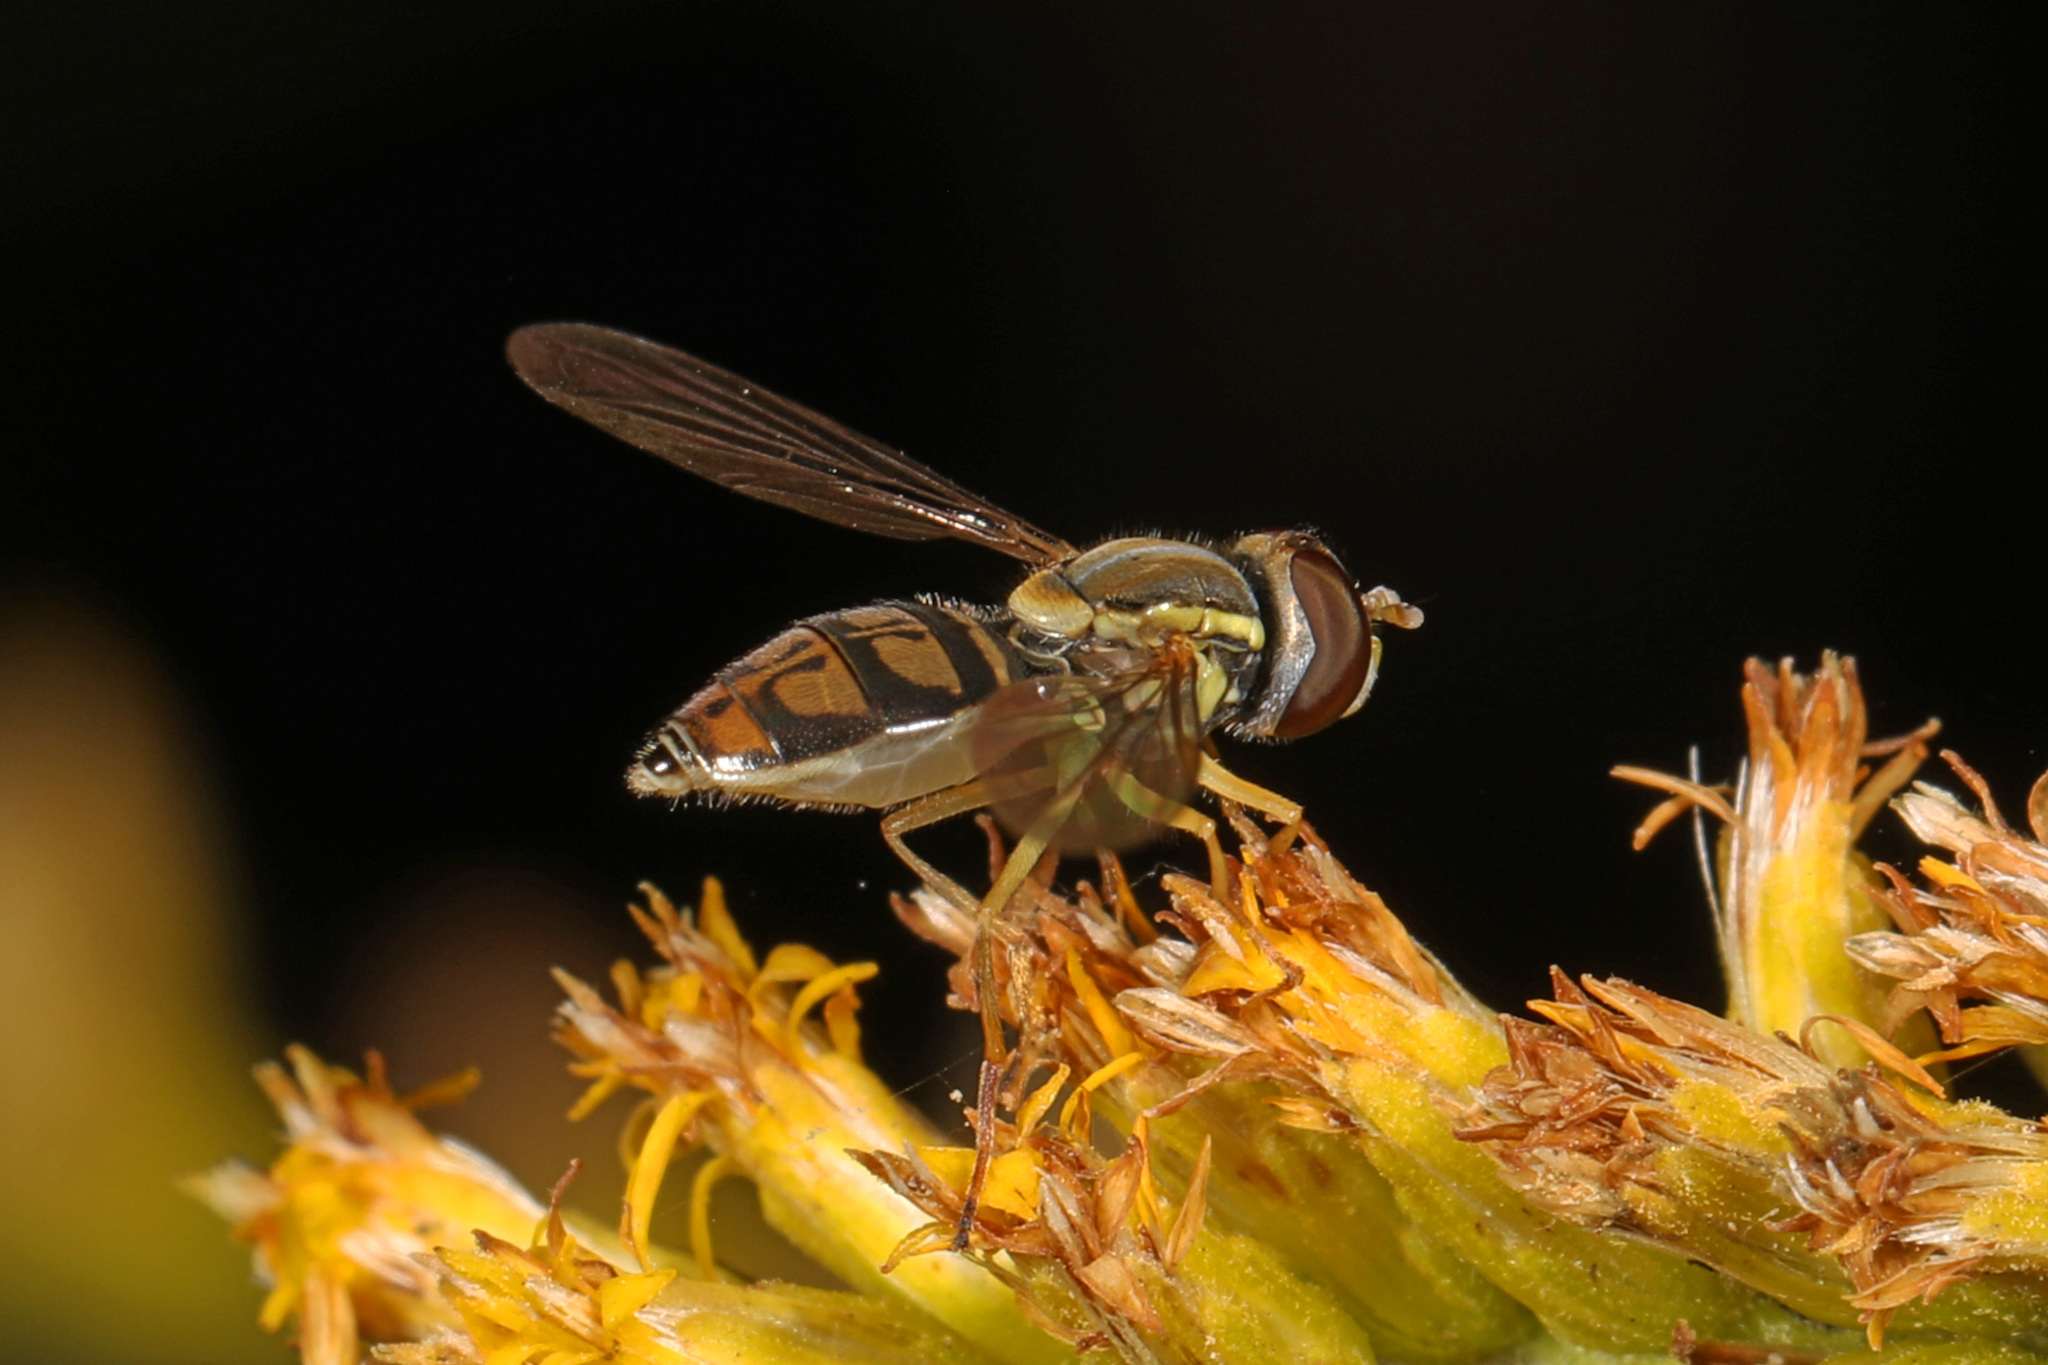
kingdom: Animalia
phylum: Arthropoda
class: Insecta
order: Diptera
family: Syrphidae
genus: Toxomerus
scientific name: Toxomerus marginatus
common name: Syrphid fly
